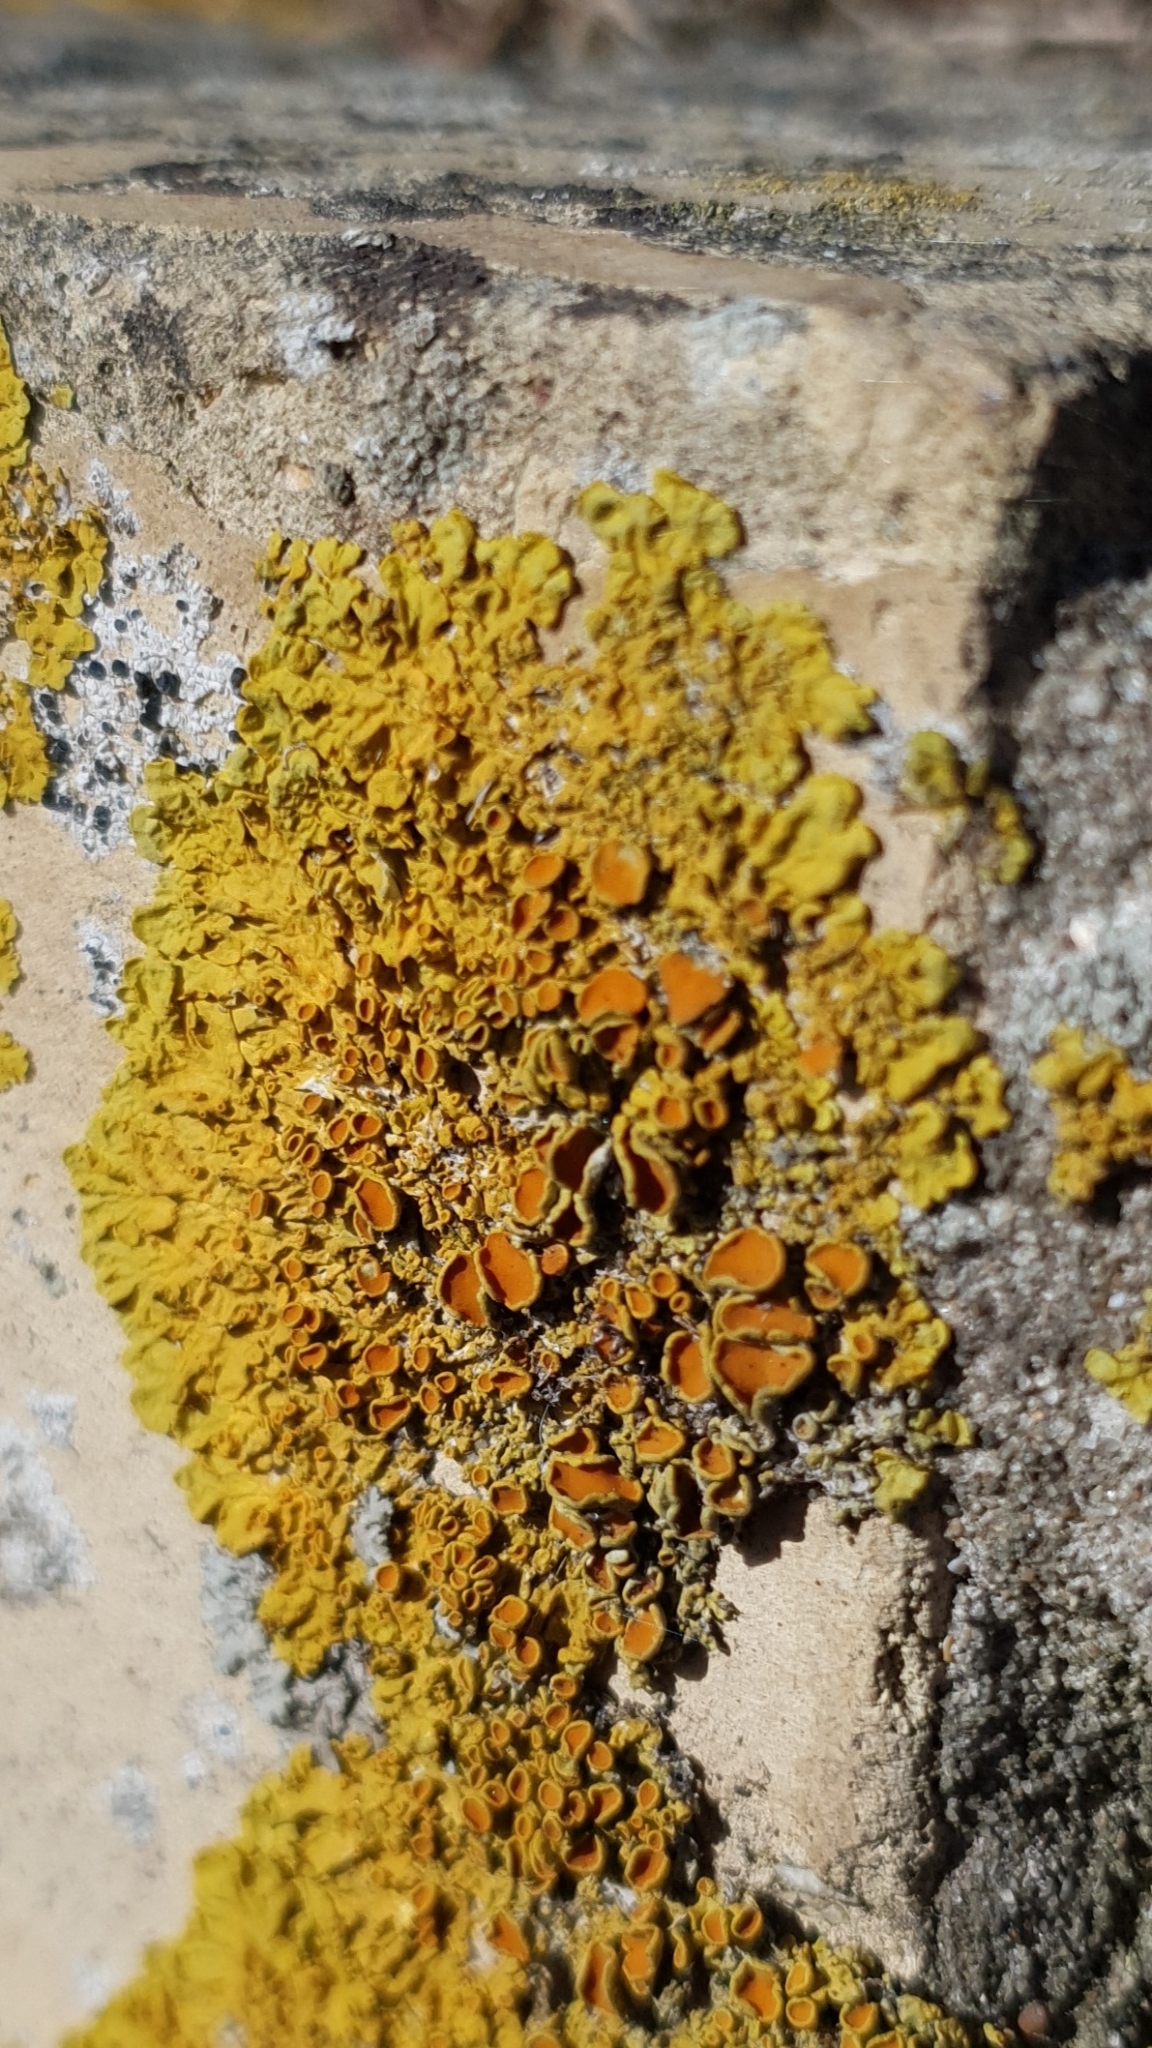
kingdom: Fungi
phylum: Ascomycota
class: Lecanoromycetes
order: Teloschistales
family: Teloschistaceae
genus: Xanthoria
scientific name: Xanthoria parietina
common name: Common orange lichen
